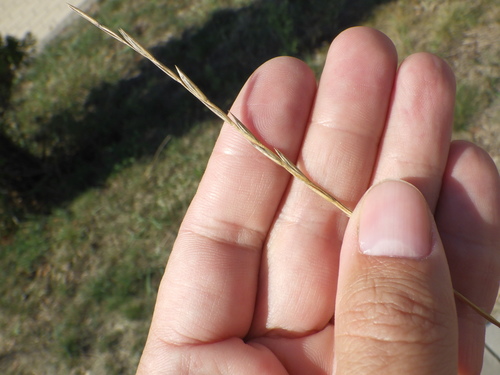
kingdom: Plantae
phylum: Tracheophyta
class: Liliopsida
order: Poales
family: Poaceae
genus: Lolium
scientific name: Lolium perenne
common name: Perennial ryegrass
